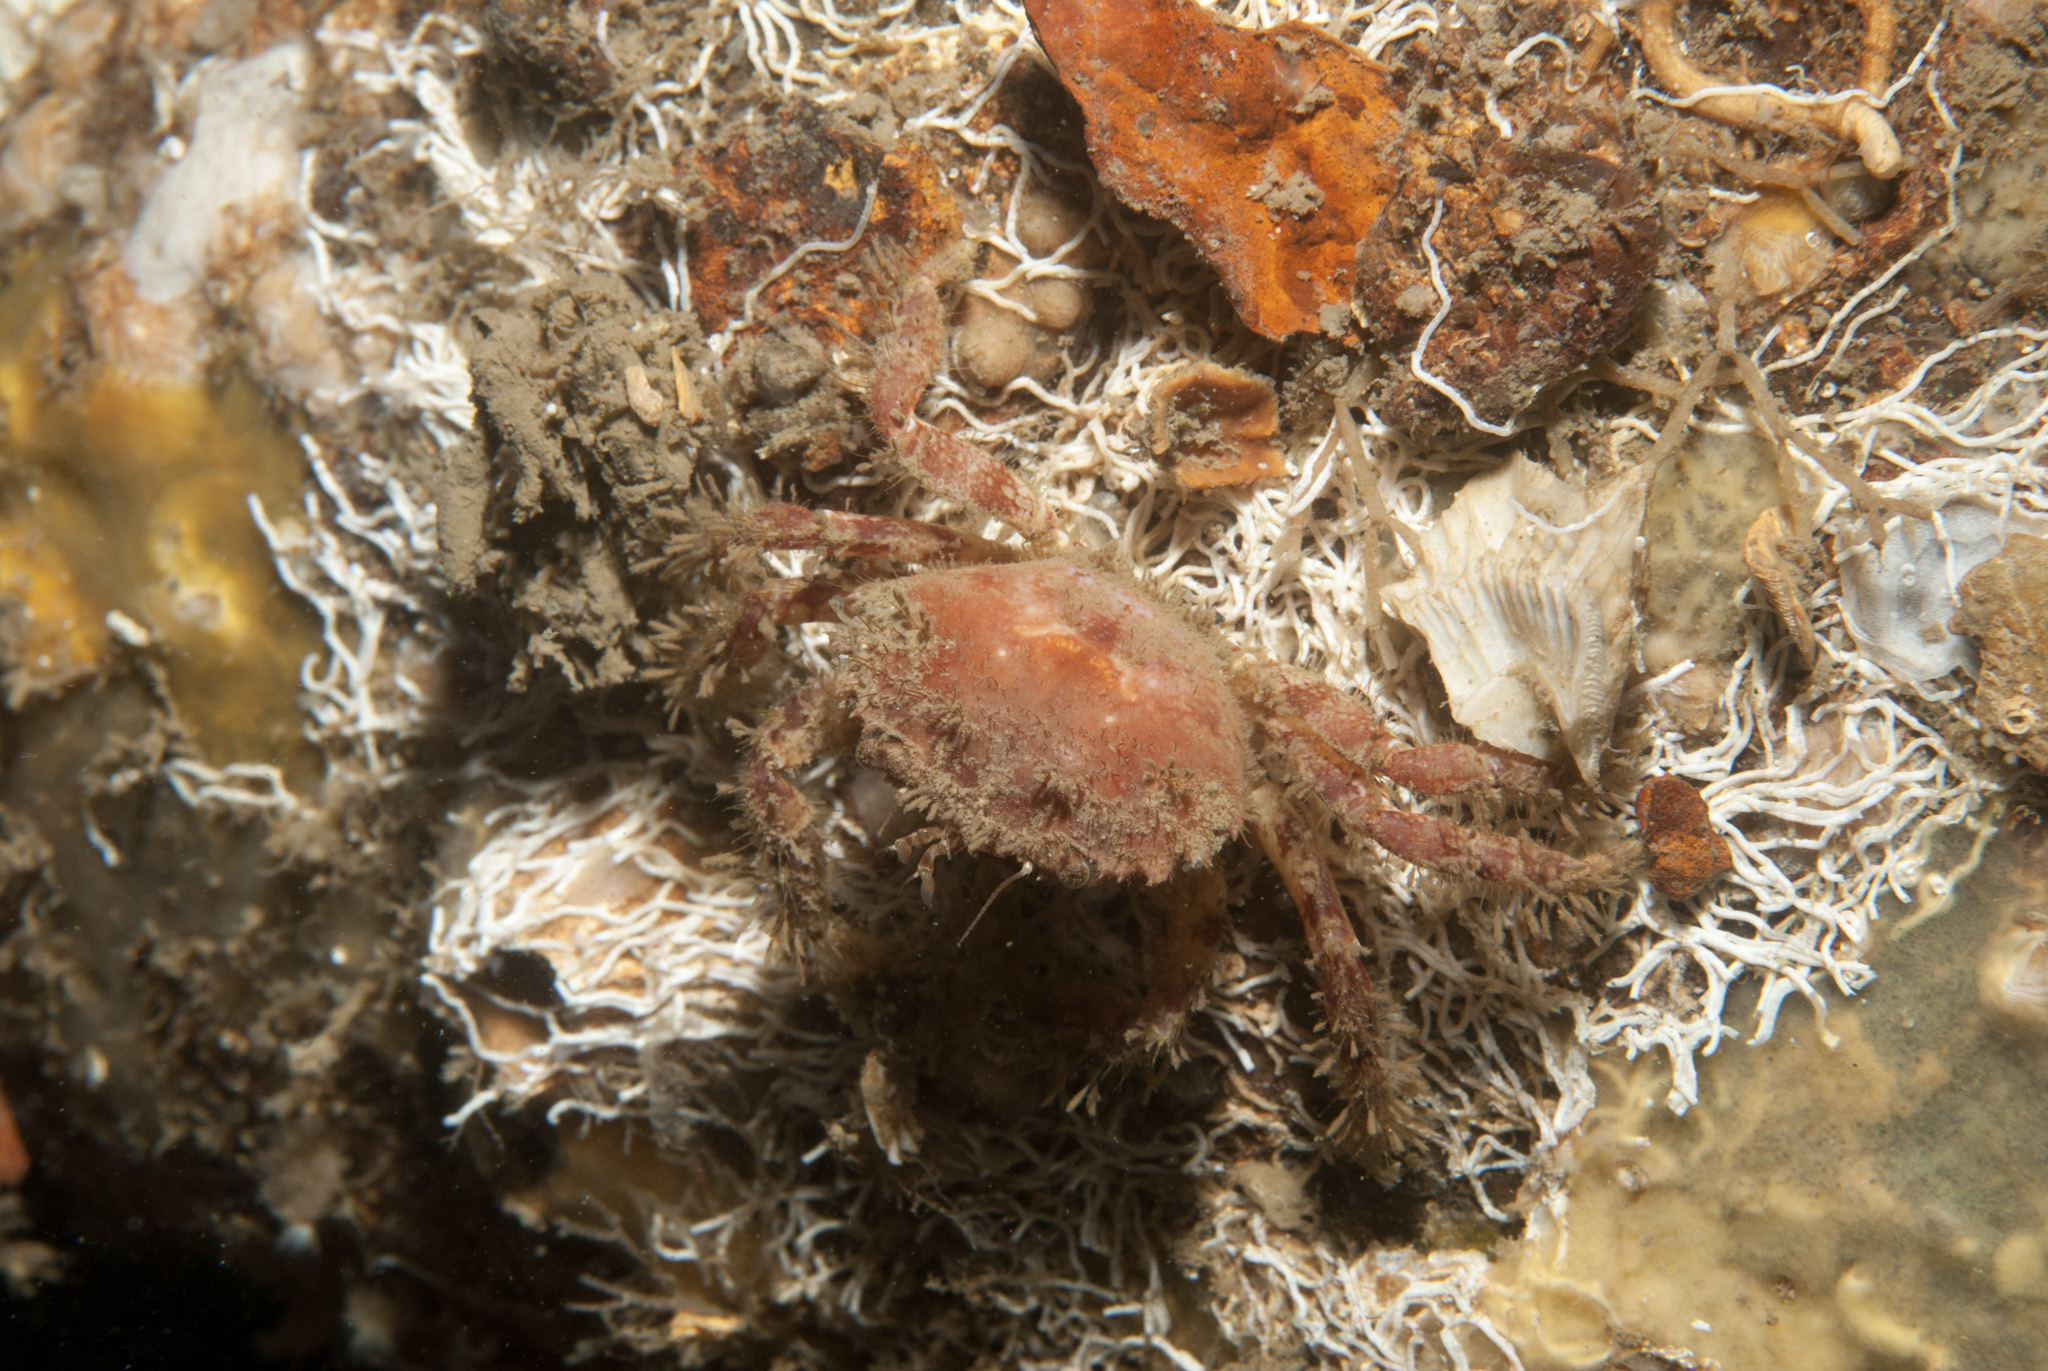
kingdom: Animalia
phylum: Arthropoda
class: Malacostraca
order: Decapoda
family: Pilumnidae
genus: Pilumnus
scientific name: Pilumnus hirtellus
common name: Hairy crab
